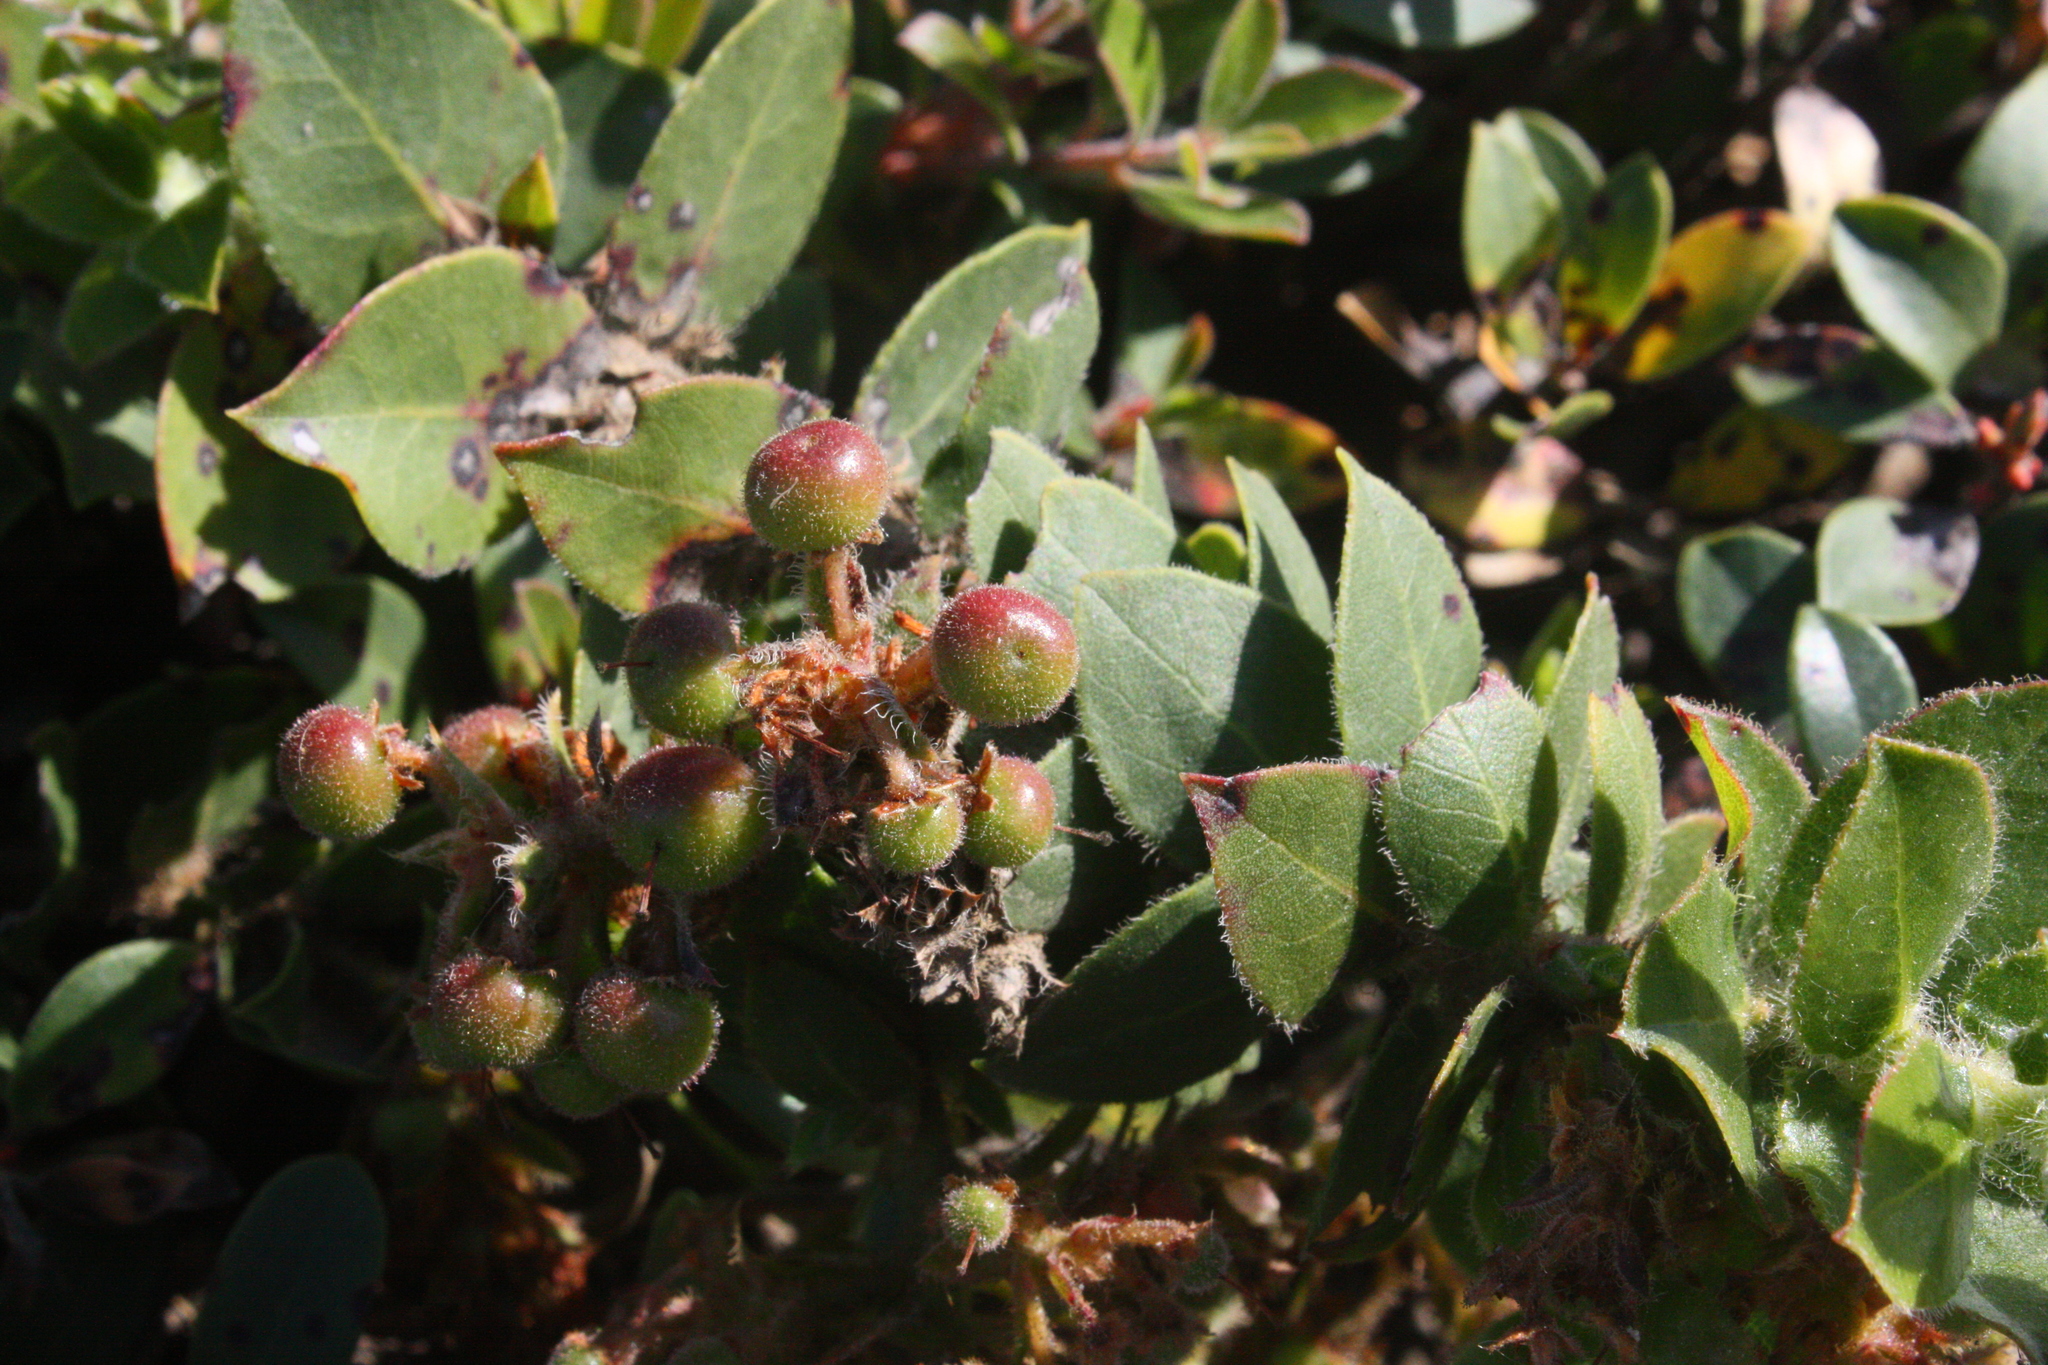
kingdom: Plantae
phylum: Tracheophyta
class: Magnoliopsida
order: Ericales
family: Ericaceae
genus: Arctostaphylos
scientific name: Arctostaphylos imbricata
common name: San bruno mountain manzanita
